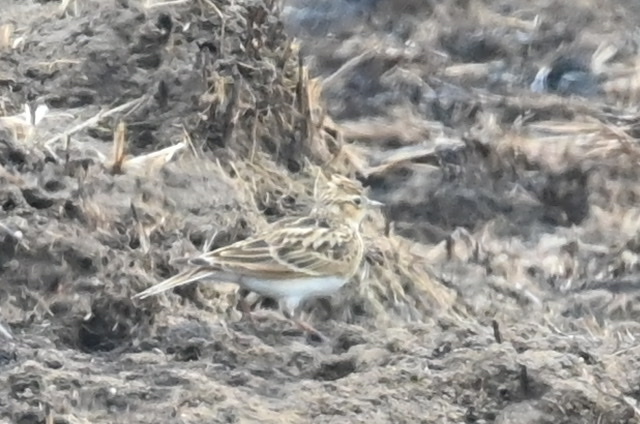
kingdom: Animalia
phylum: Chordata
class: Aves
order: Passeriformes
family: Alaudidae
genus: Alauda
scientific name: Alauda arvensis
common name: Eurasian skylark
